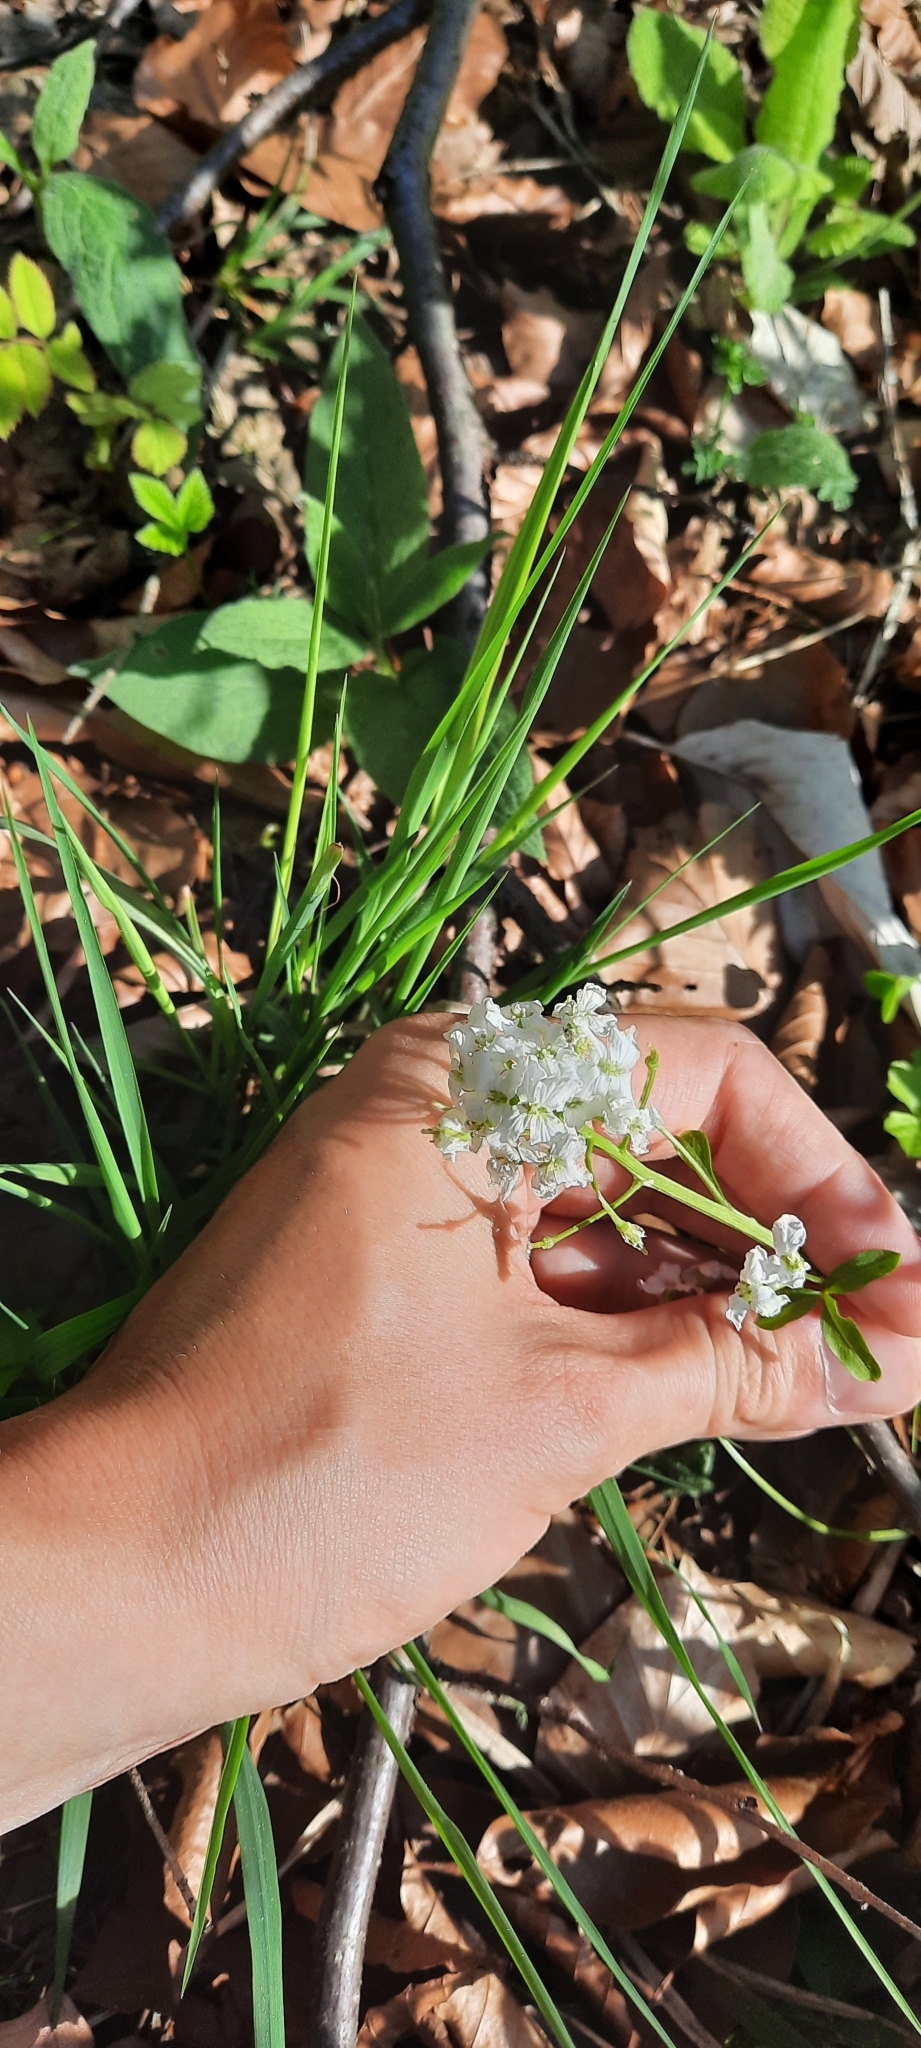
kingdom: Plantae
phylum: Tracheophyta
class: Magnoliopsida
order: Brassicales
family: Brassicaceae
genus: Cardamine
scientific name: Cardamine trifolia
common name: Trefoil cress
